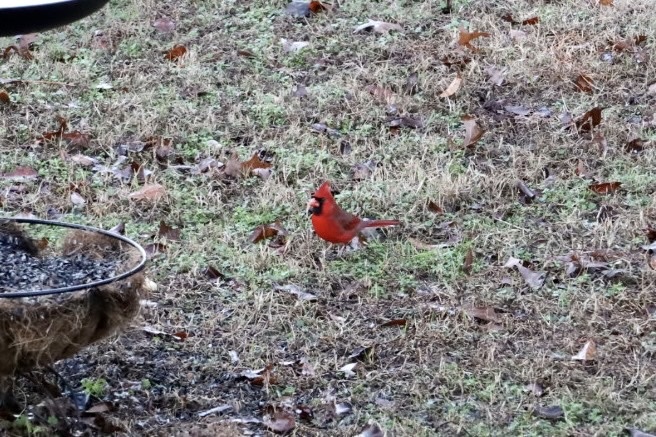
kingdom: Animalia
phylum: Chordata
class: Aves
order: Passeriformes
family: Cardinalidae
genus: Cardinalis
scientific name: Cardinalis cardinalis
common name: Northern cardinal
